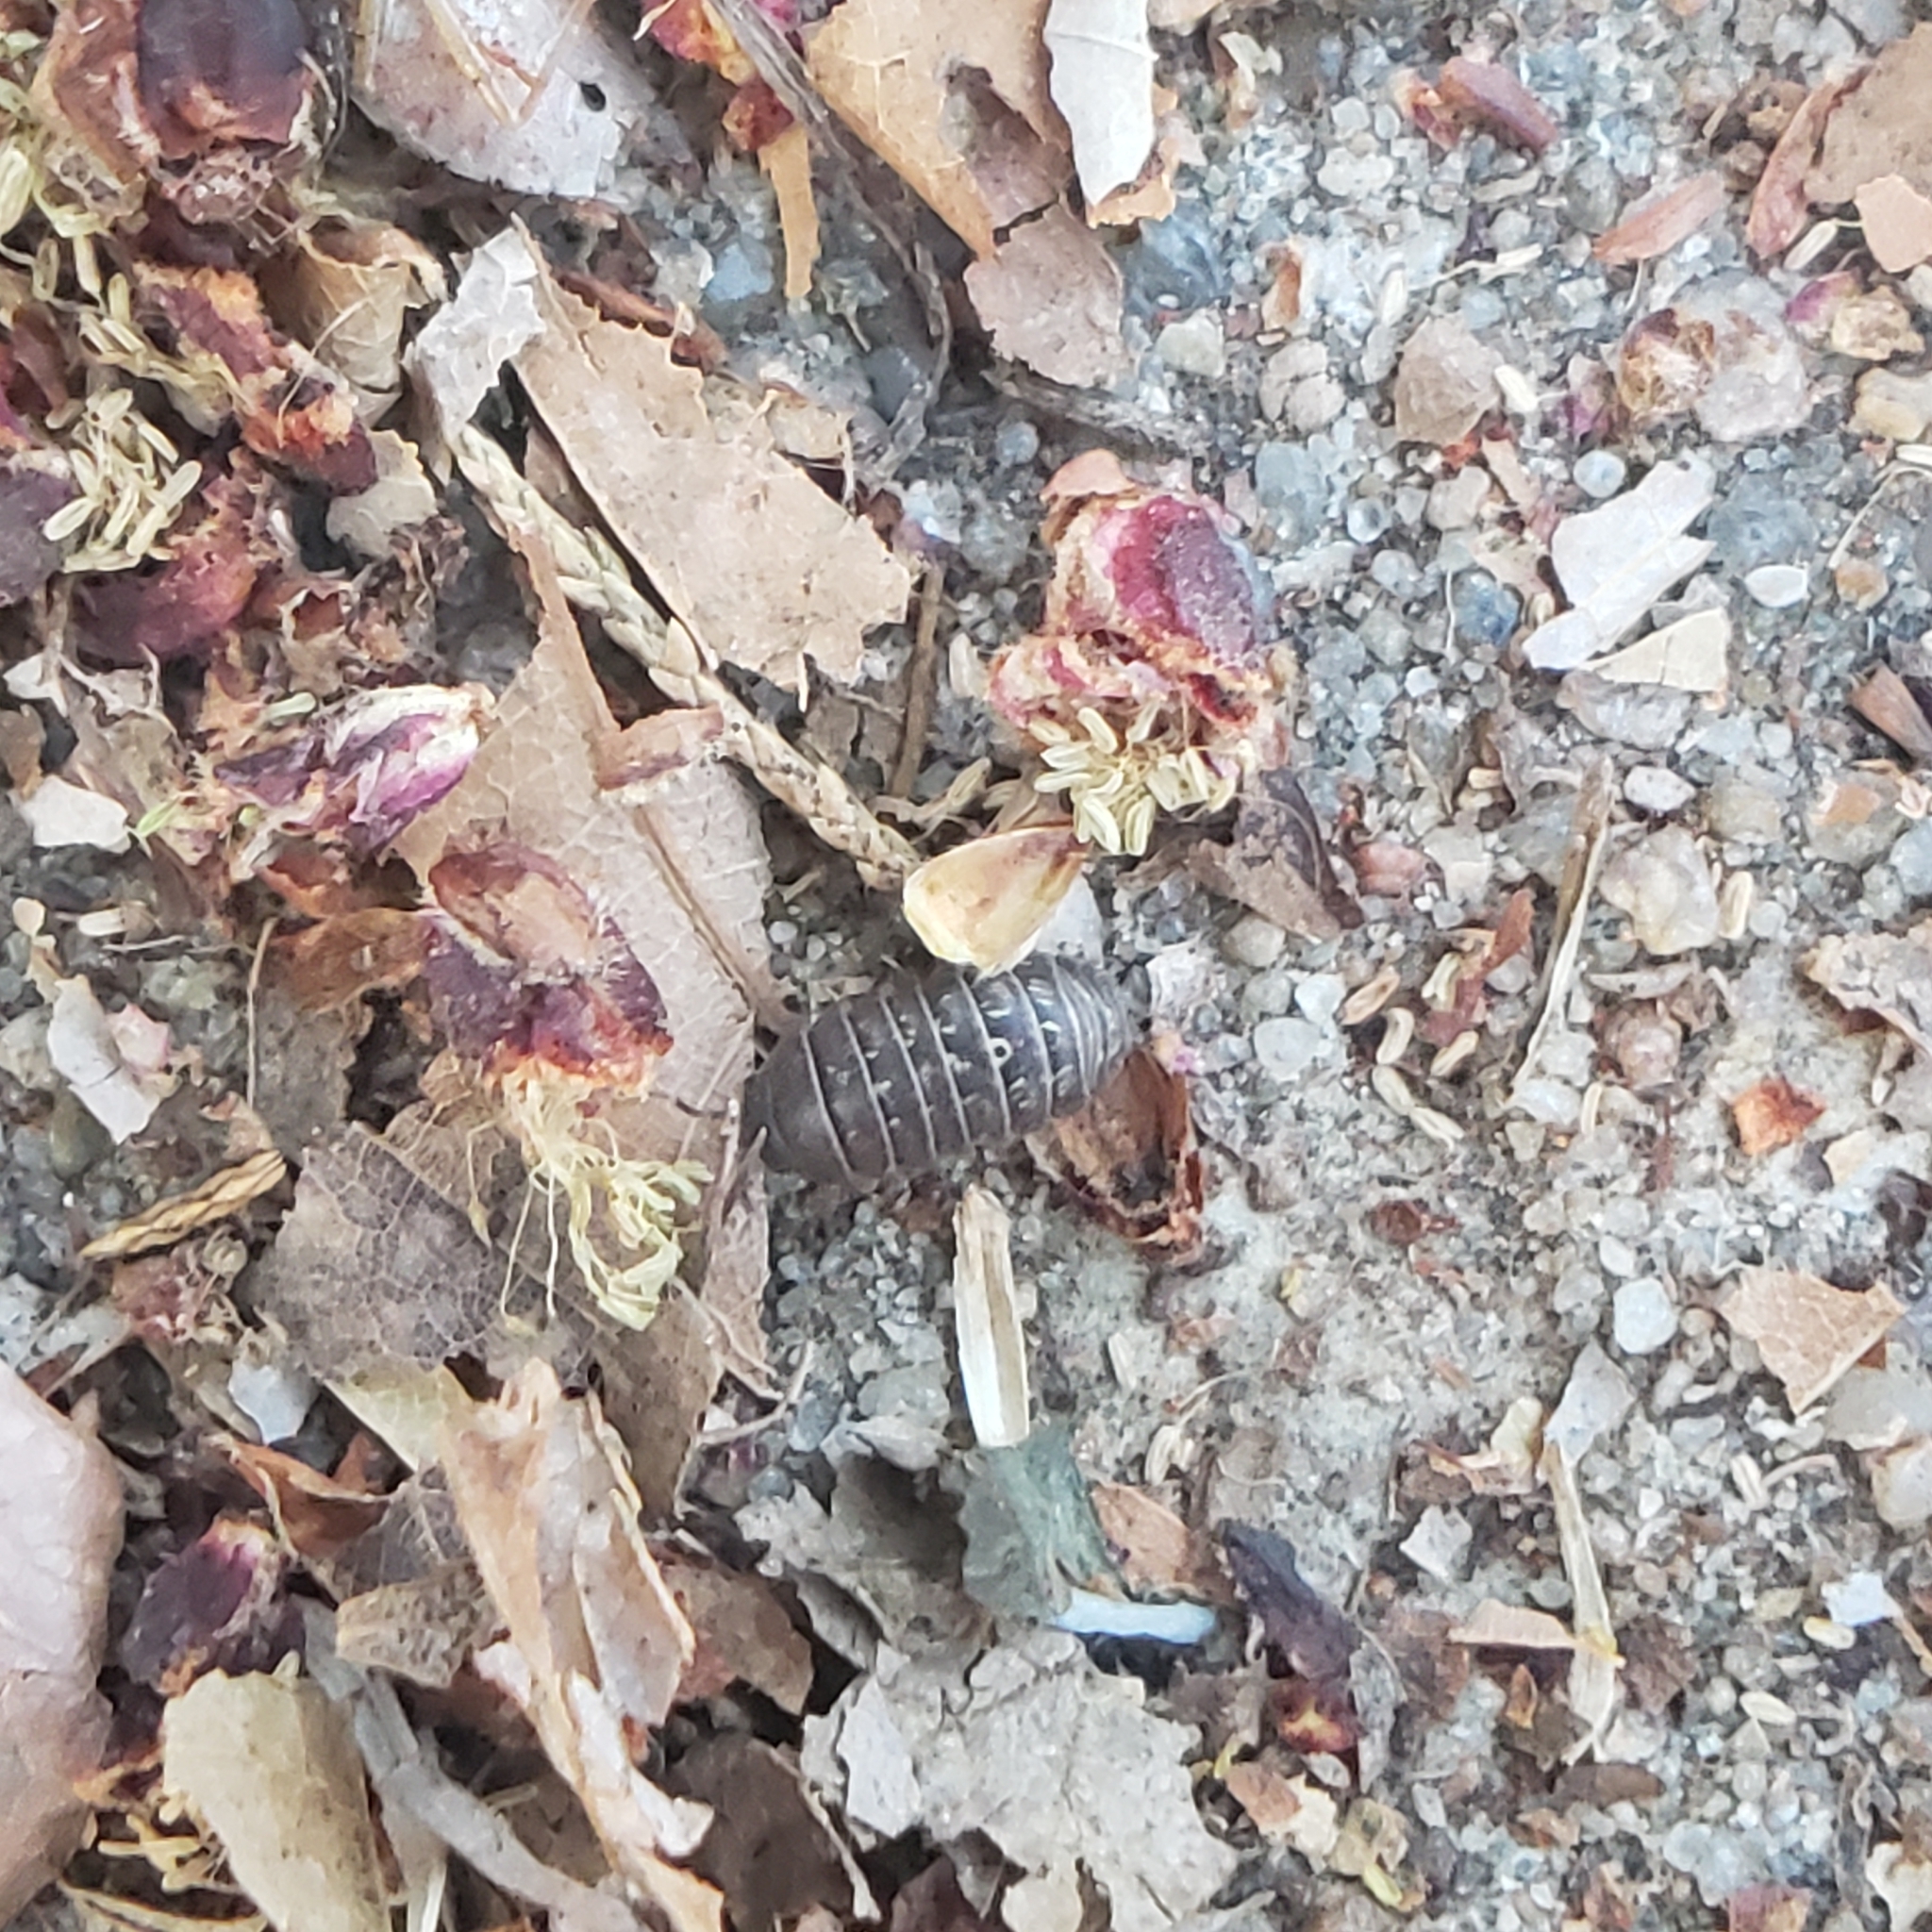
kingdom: Animalia
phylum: Arthropoda
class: Malacostraca
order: Isopoda
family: Armadillidiidae
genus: Armadillidium
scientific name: Armadillidium vulgare
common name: Common pill woodlouse
